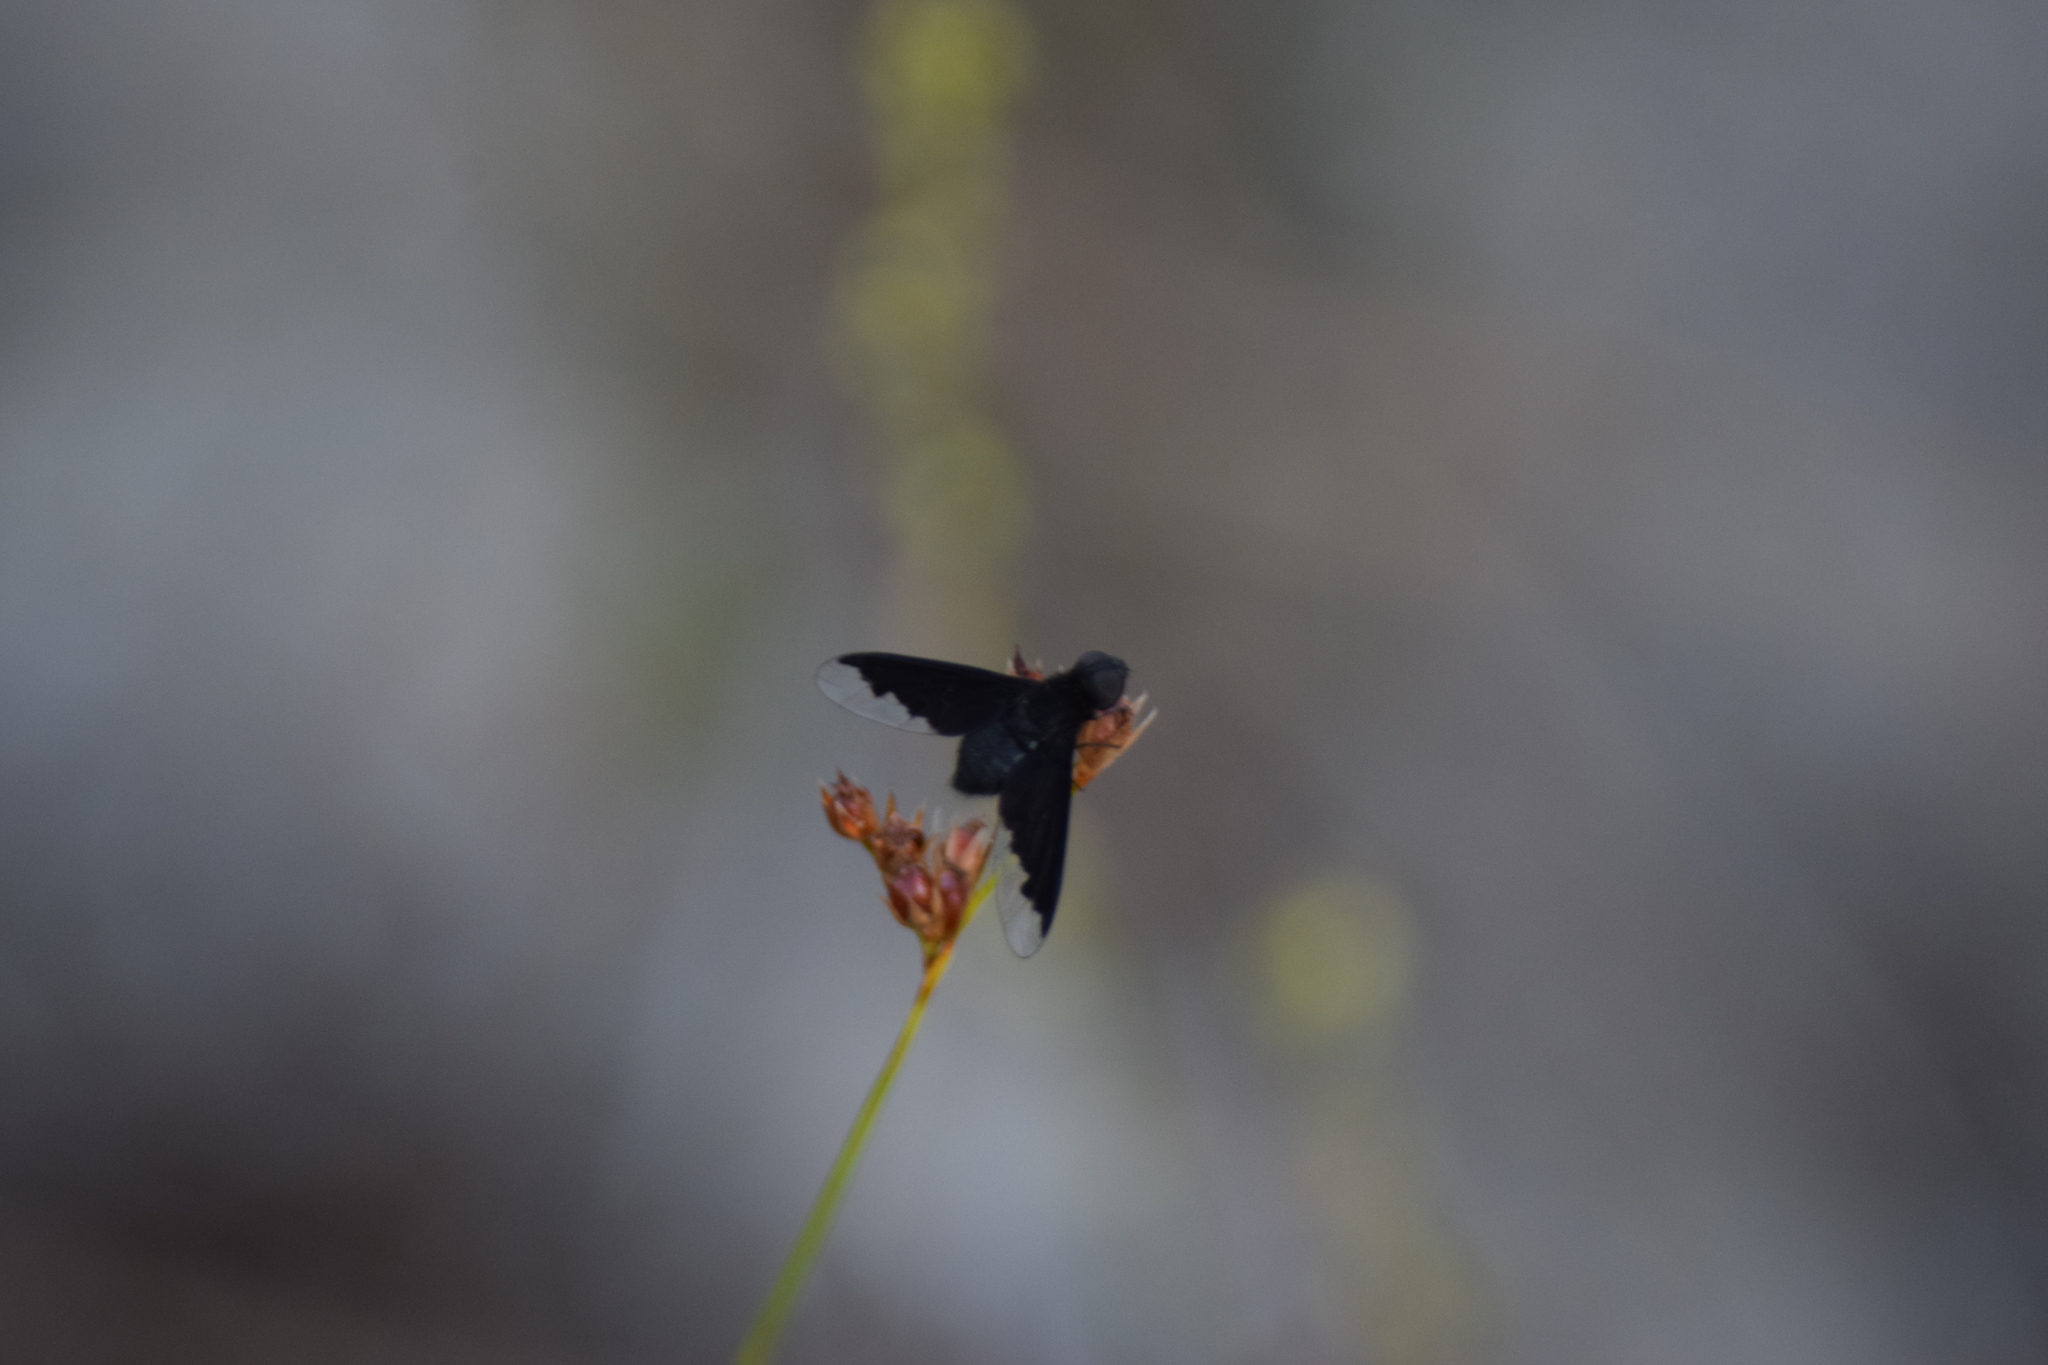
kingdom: Animalia
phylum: Arthropoda
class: Insecta
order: Diptera
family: Bombyliidae
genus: Anthrax
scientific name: Anthrax analis
